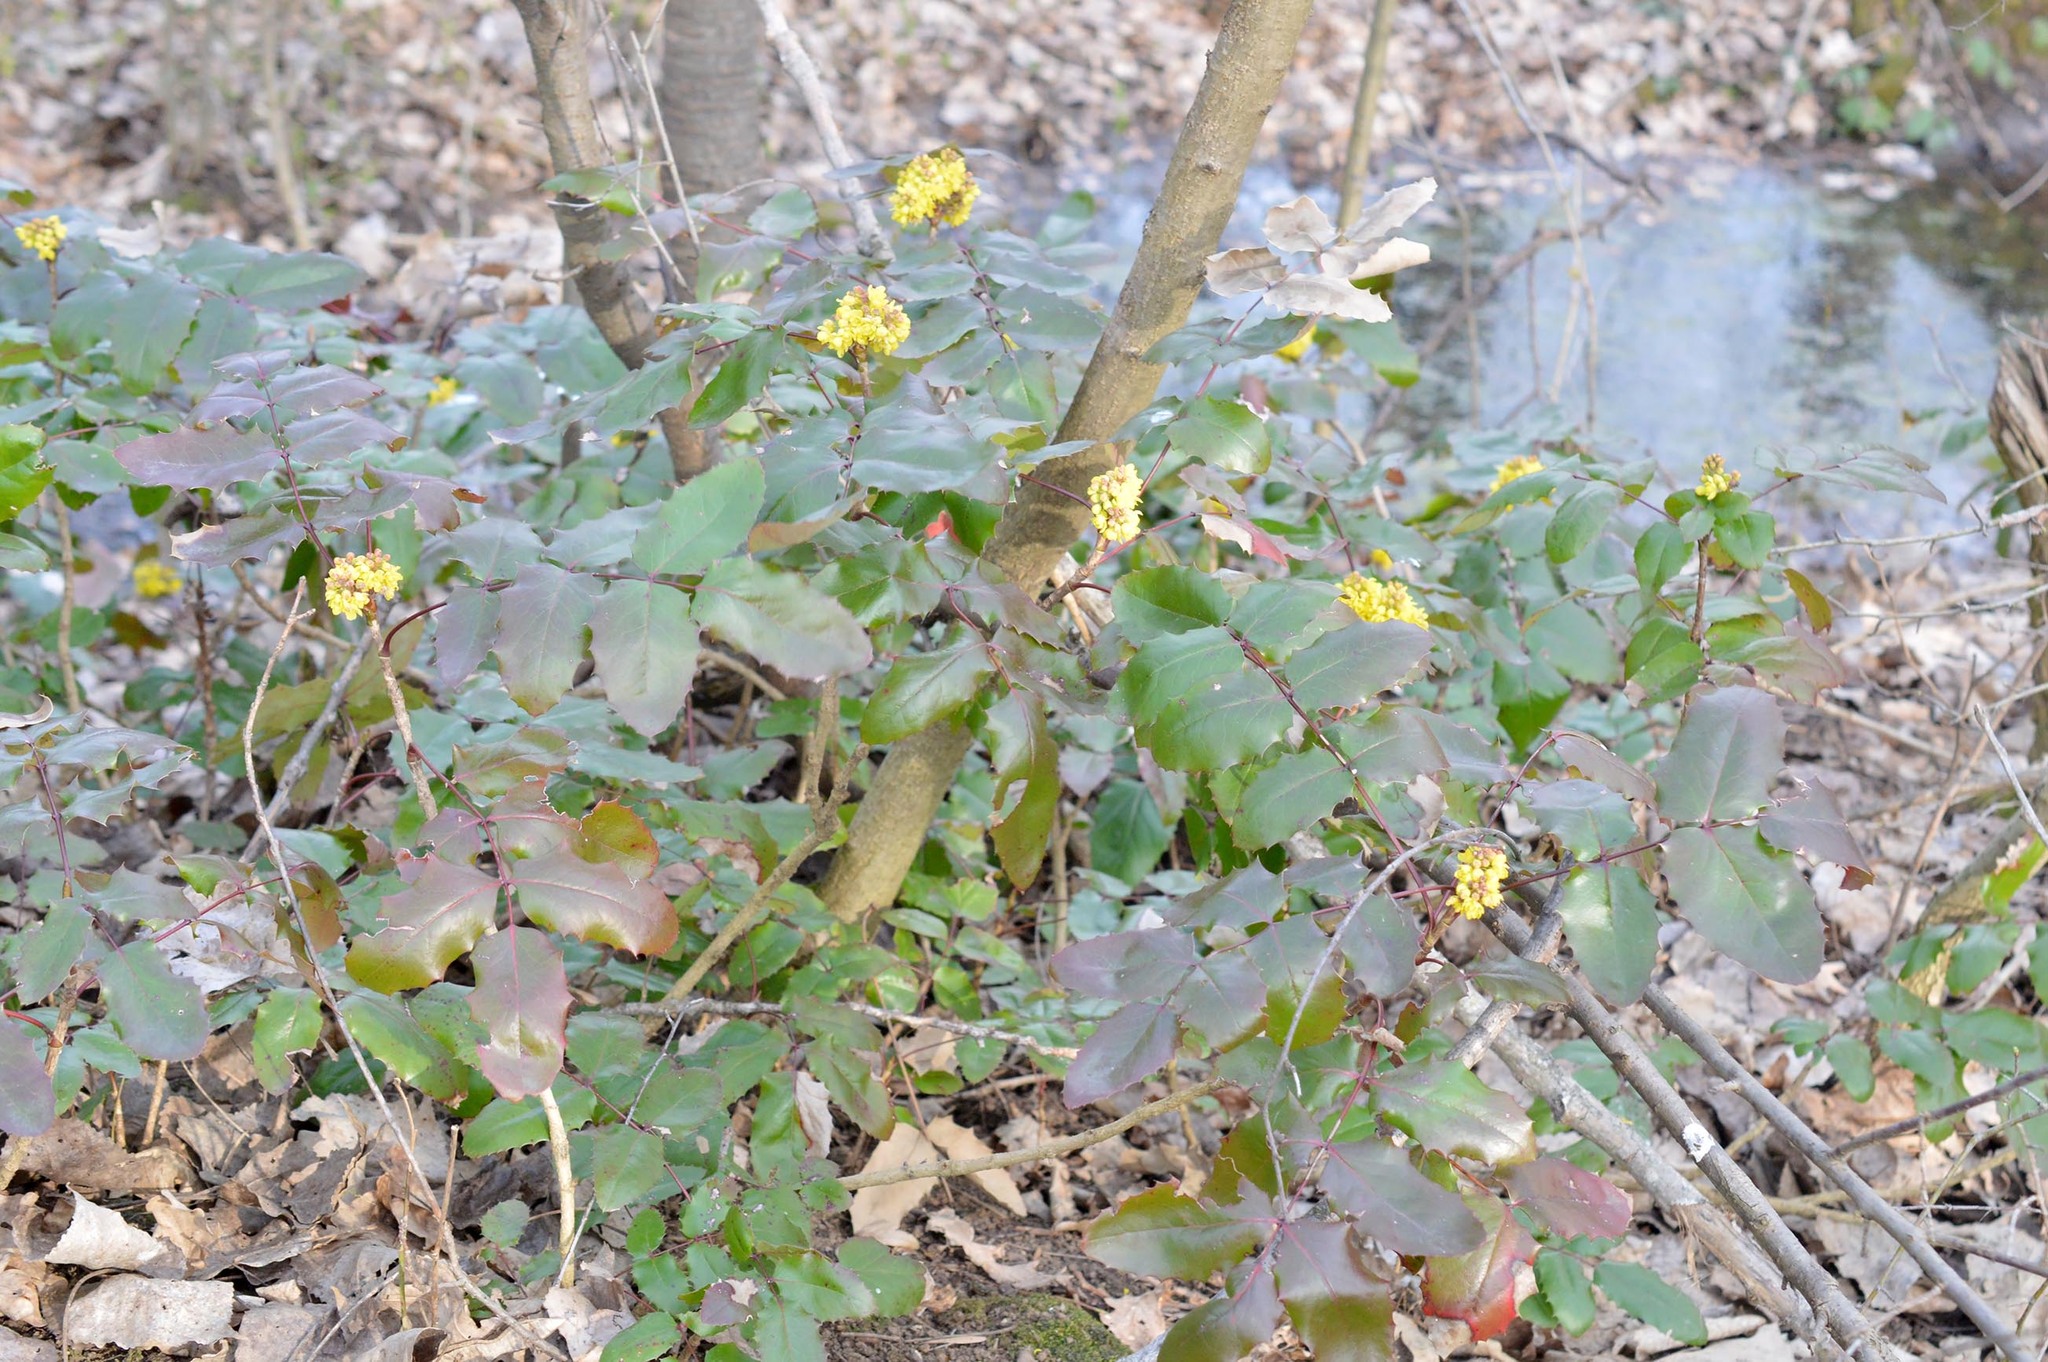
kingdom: Plantae
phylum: Tracheophyta
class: Magnoliopsida
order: Ranunculales
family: Berberidaceae
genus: Mahonia
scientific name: Mahonia aquifolium
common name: Oregon-grape
